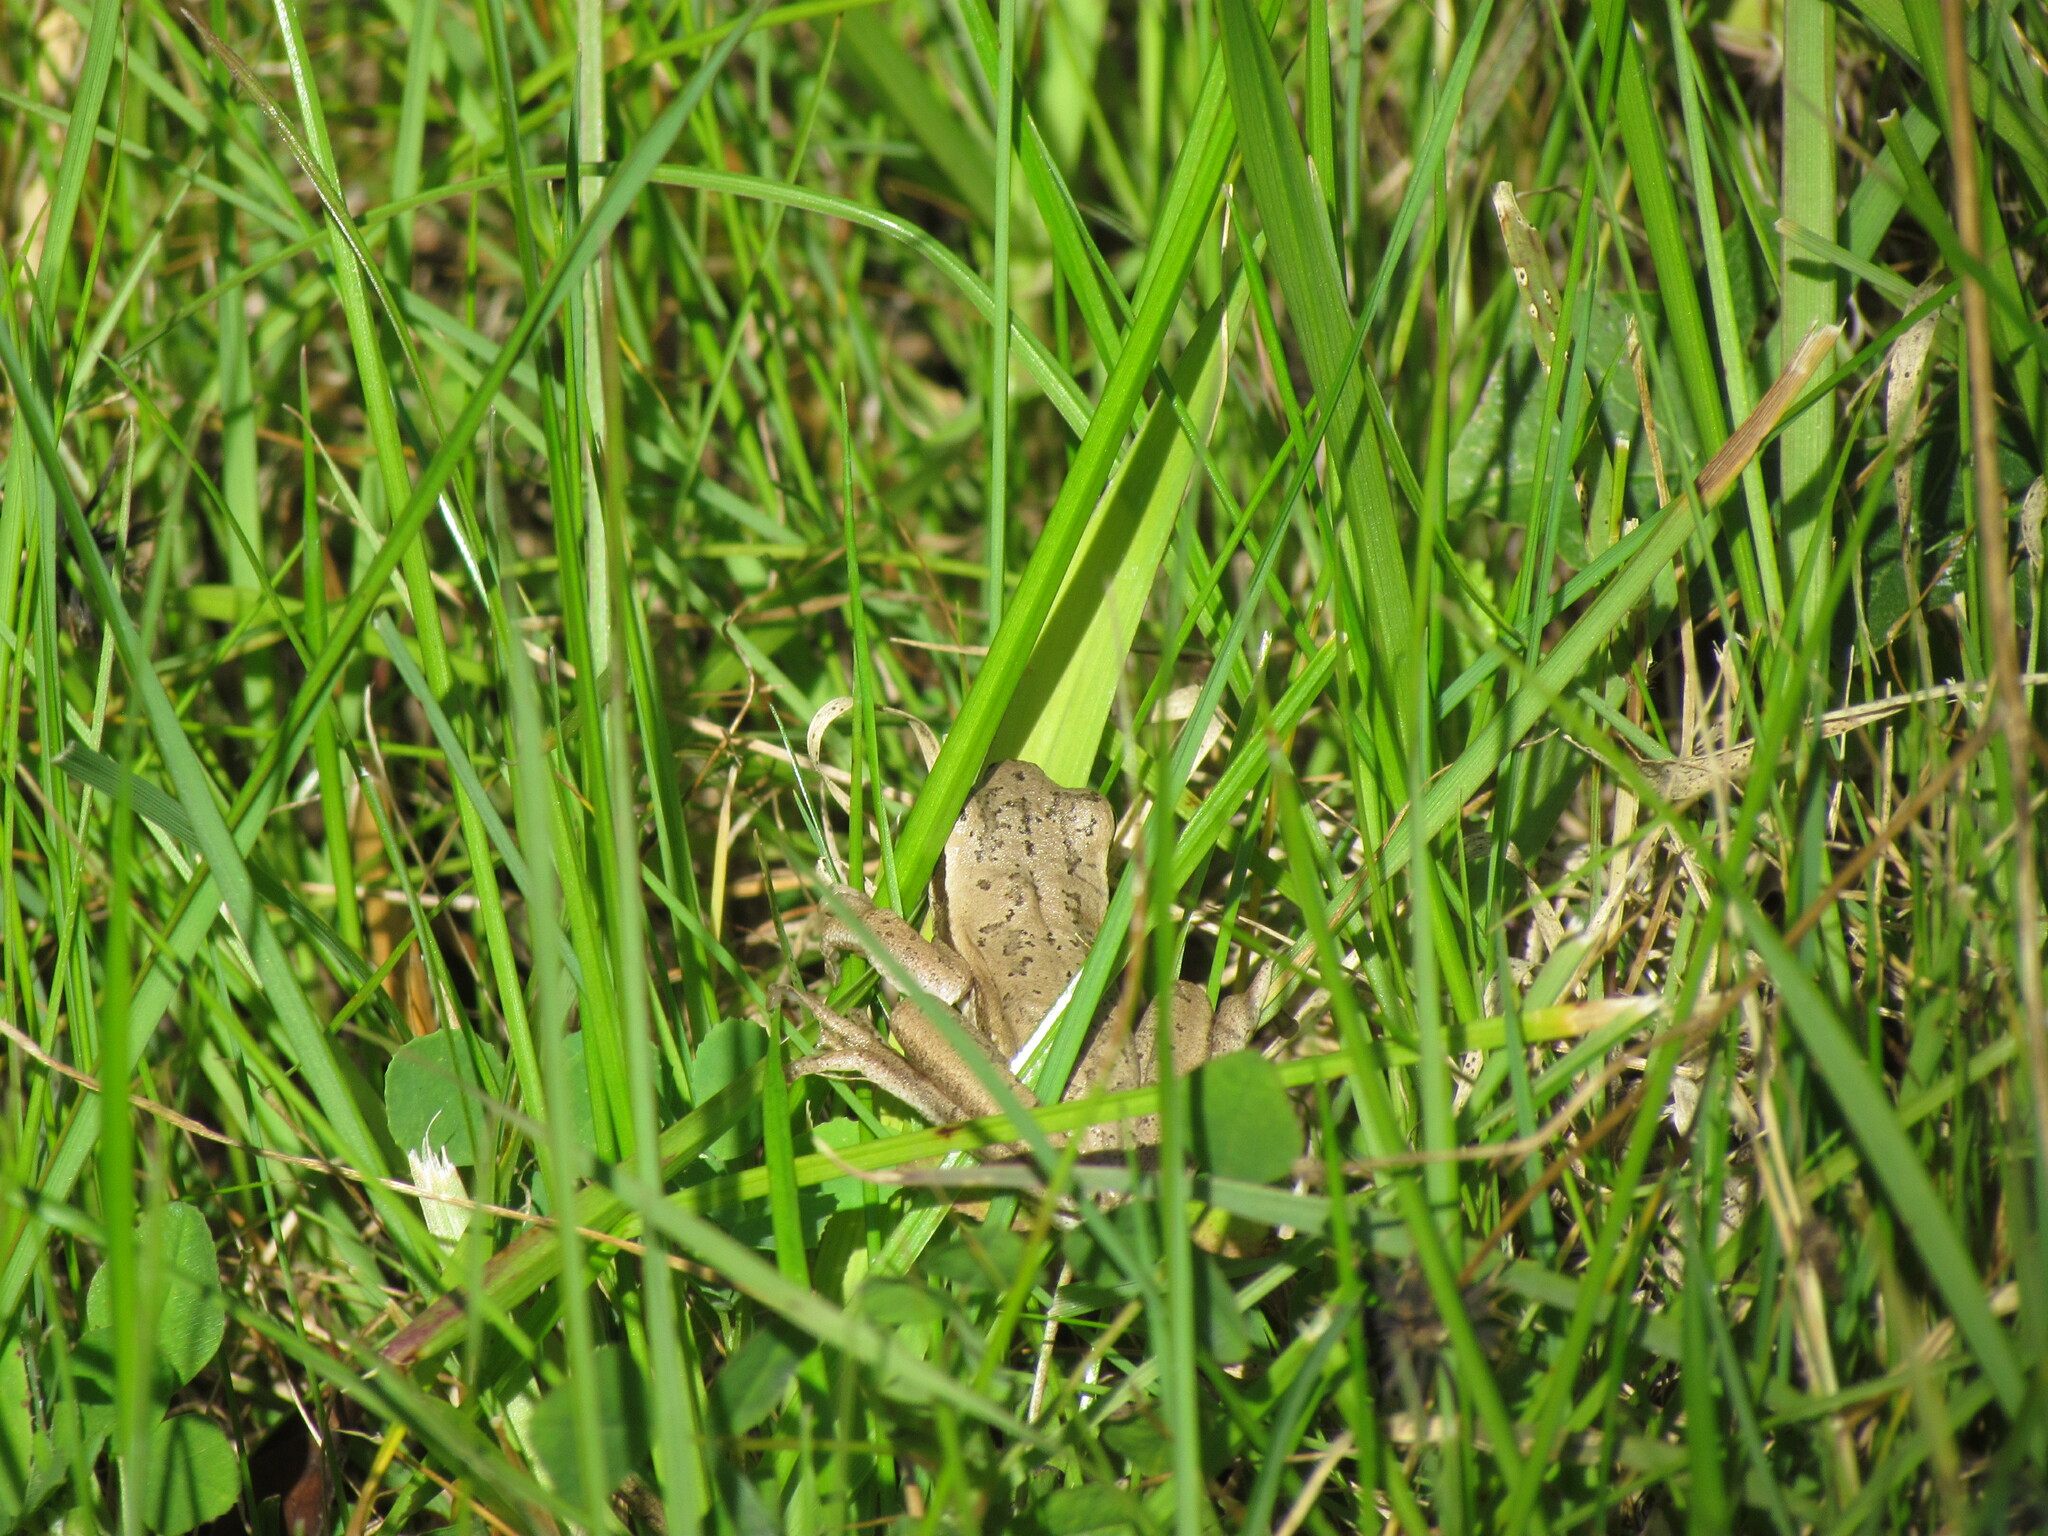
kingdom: Animalia
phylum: Chordata
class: Amphibia
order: Anura
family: Hylidae
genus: Boana
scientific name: Boana pulchella
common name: Montevideo treefrog
